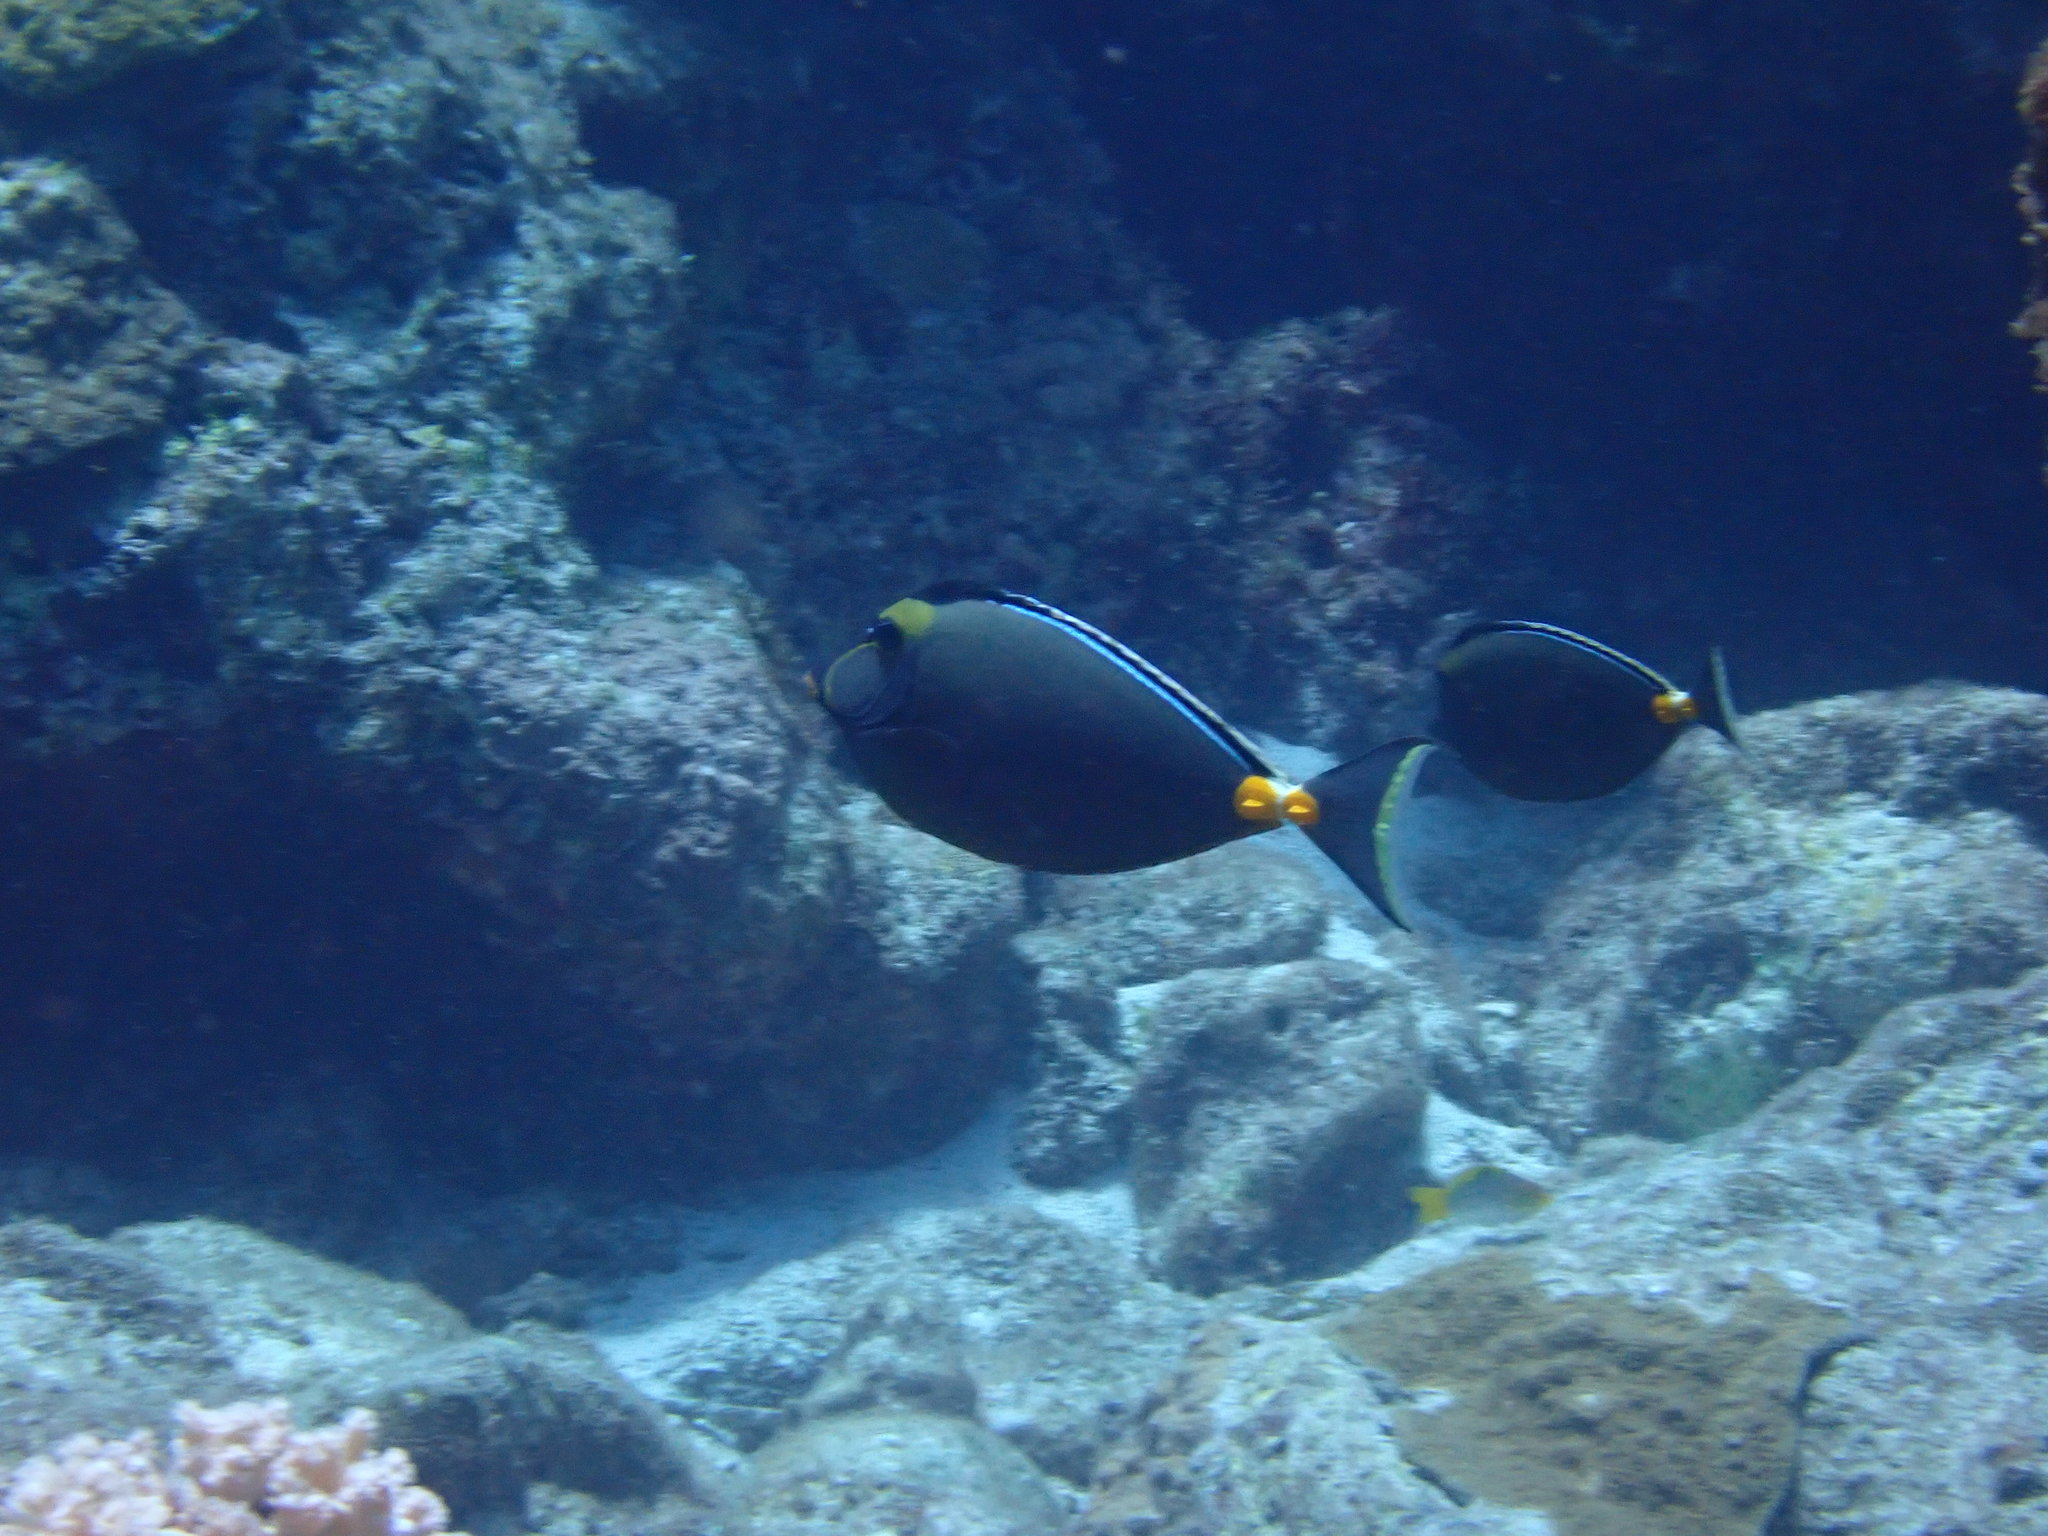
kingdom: Animalia
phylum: Chordata
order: Perciformes
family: Acanthuridae
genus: Naso
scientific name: Naso lituratus
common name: Orangespine unicornfish
